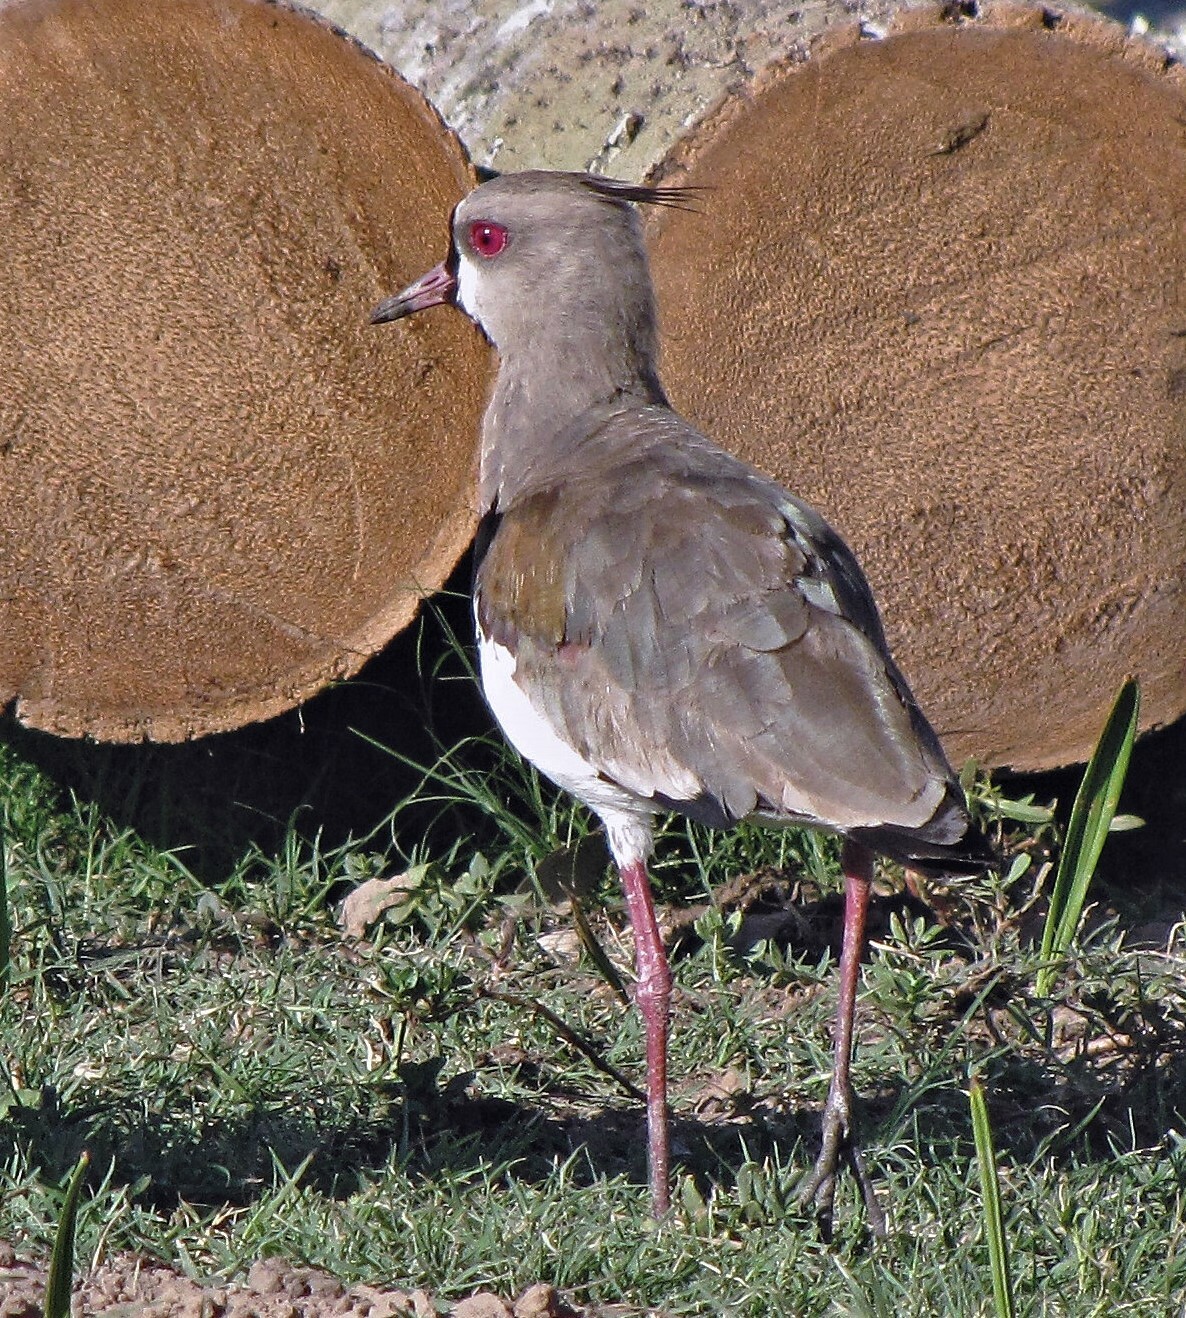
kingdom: Animalia
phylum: Chordata
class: Aves
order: Charadriiformes
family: Charadriidae
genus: Vanellus
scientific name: Vanellus chilensis
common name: Southern lapwing
